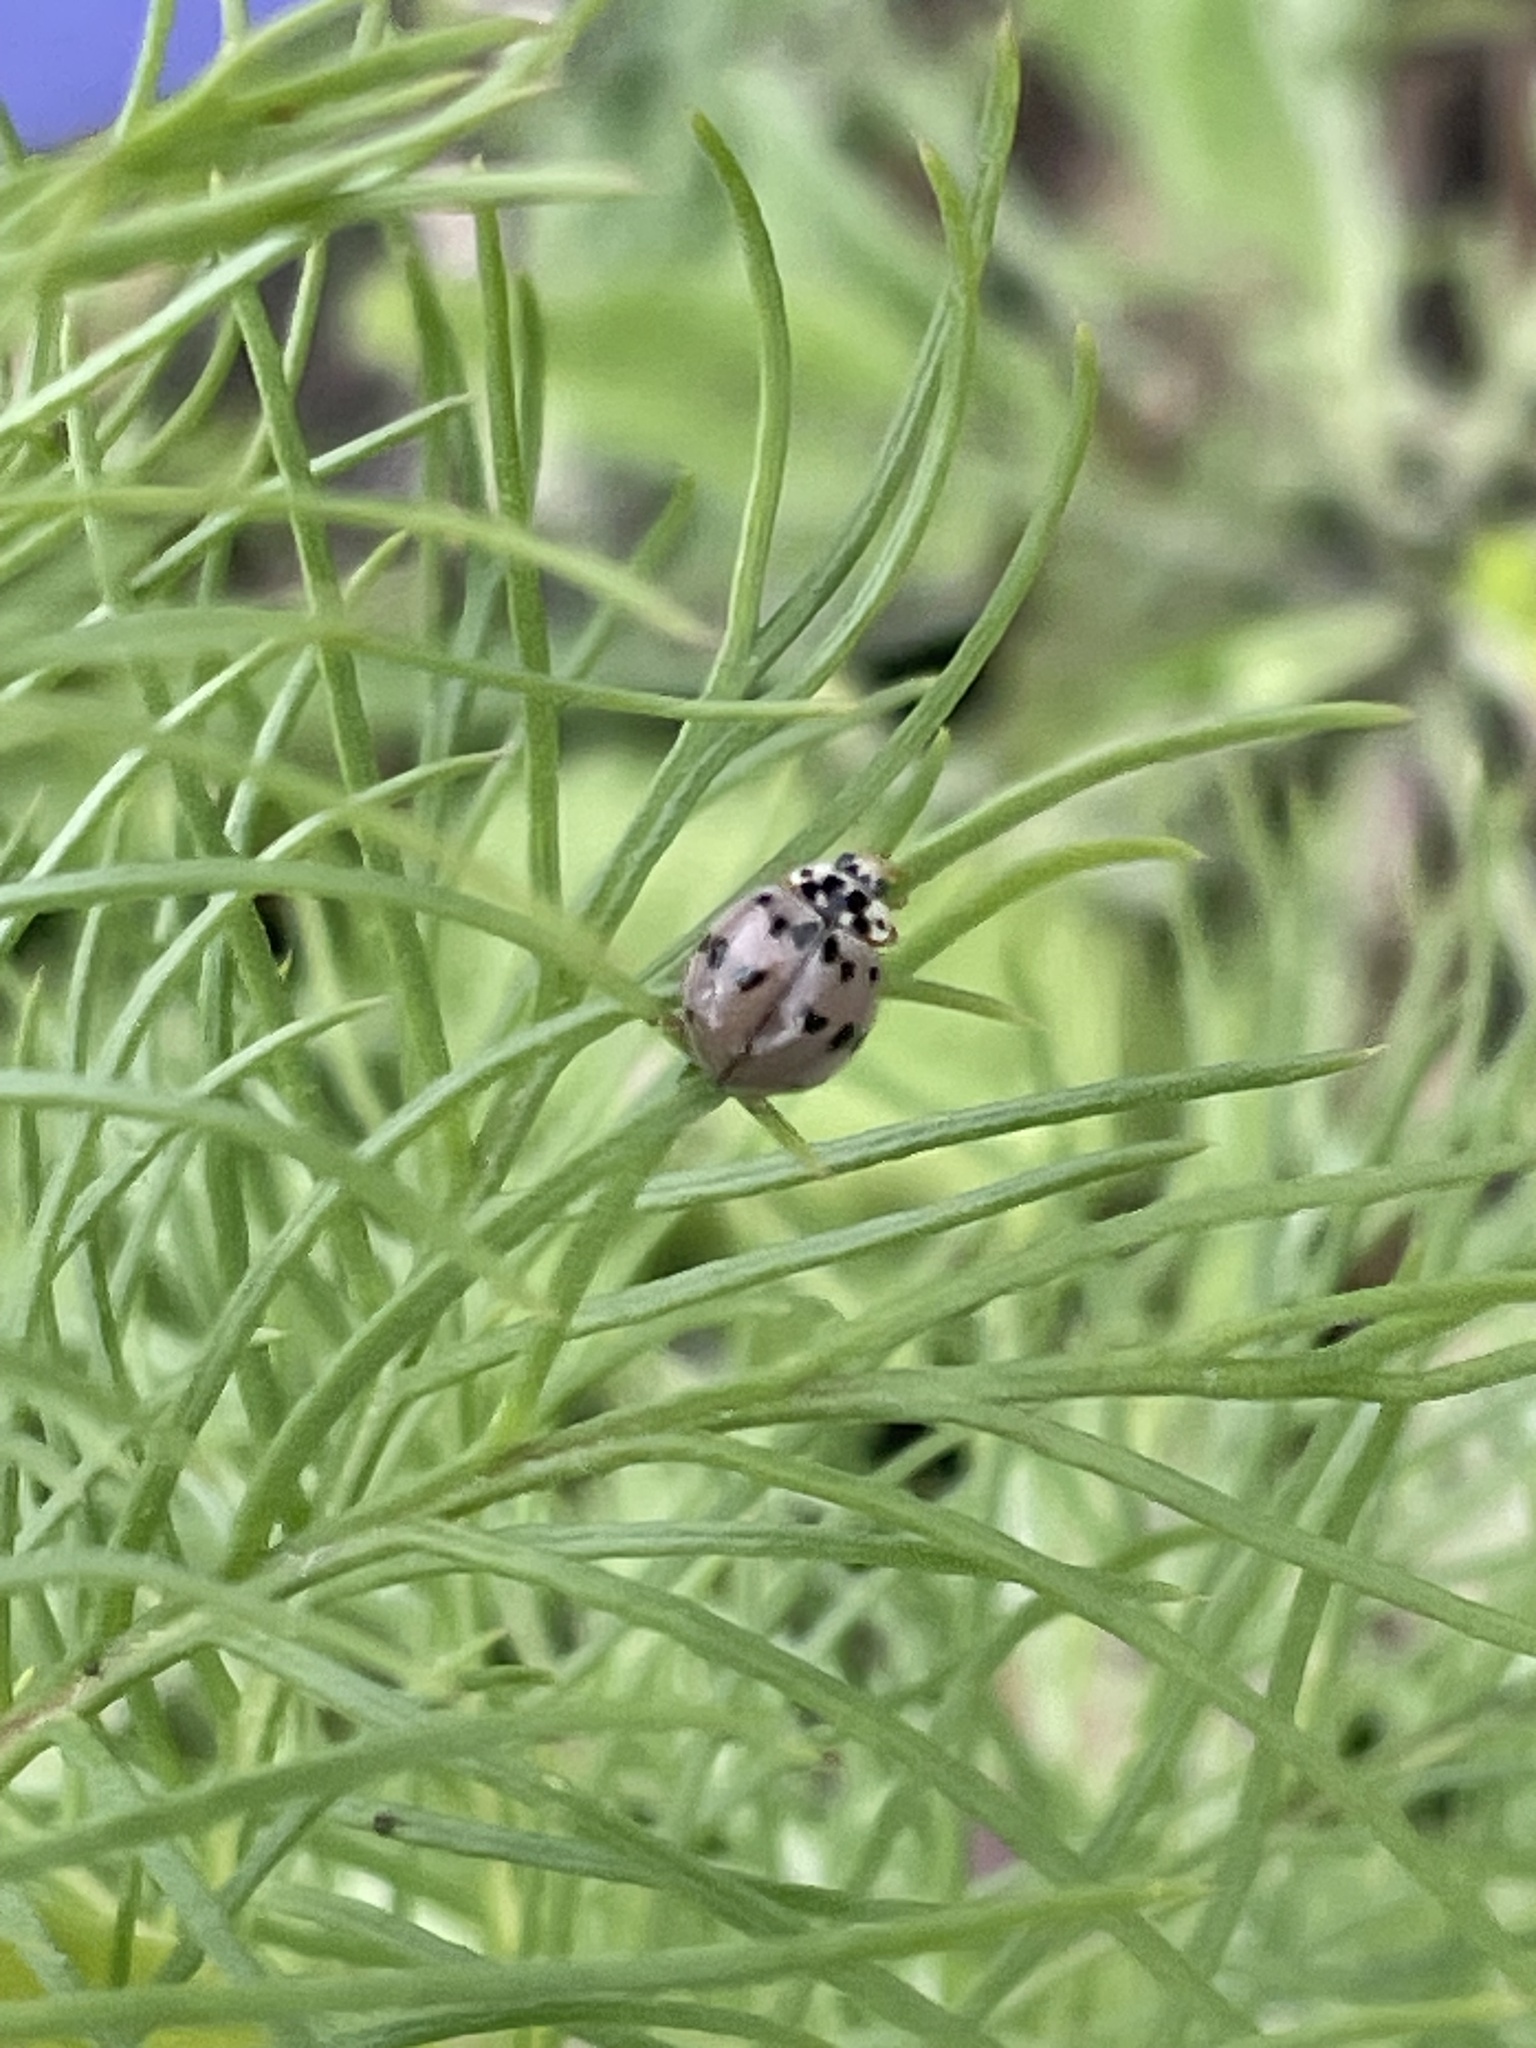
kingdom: Animalia
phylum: Arthropoda
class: Insecta
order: Coleoptera
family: Coccinellidae
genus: Olla
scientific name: Olla v-nigrum
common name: Ashy gray lady beetle
